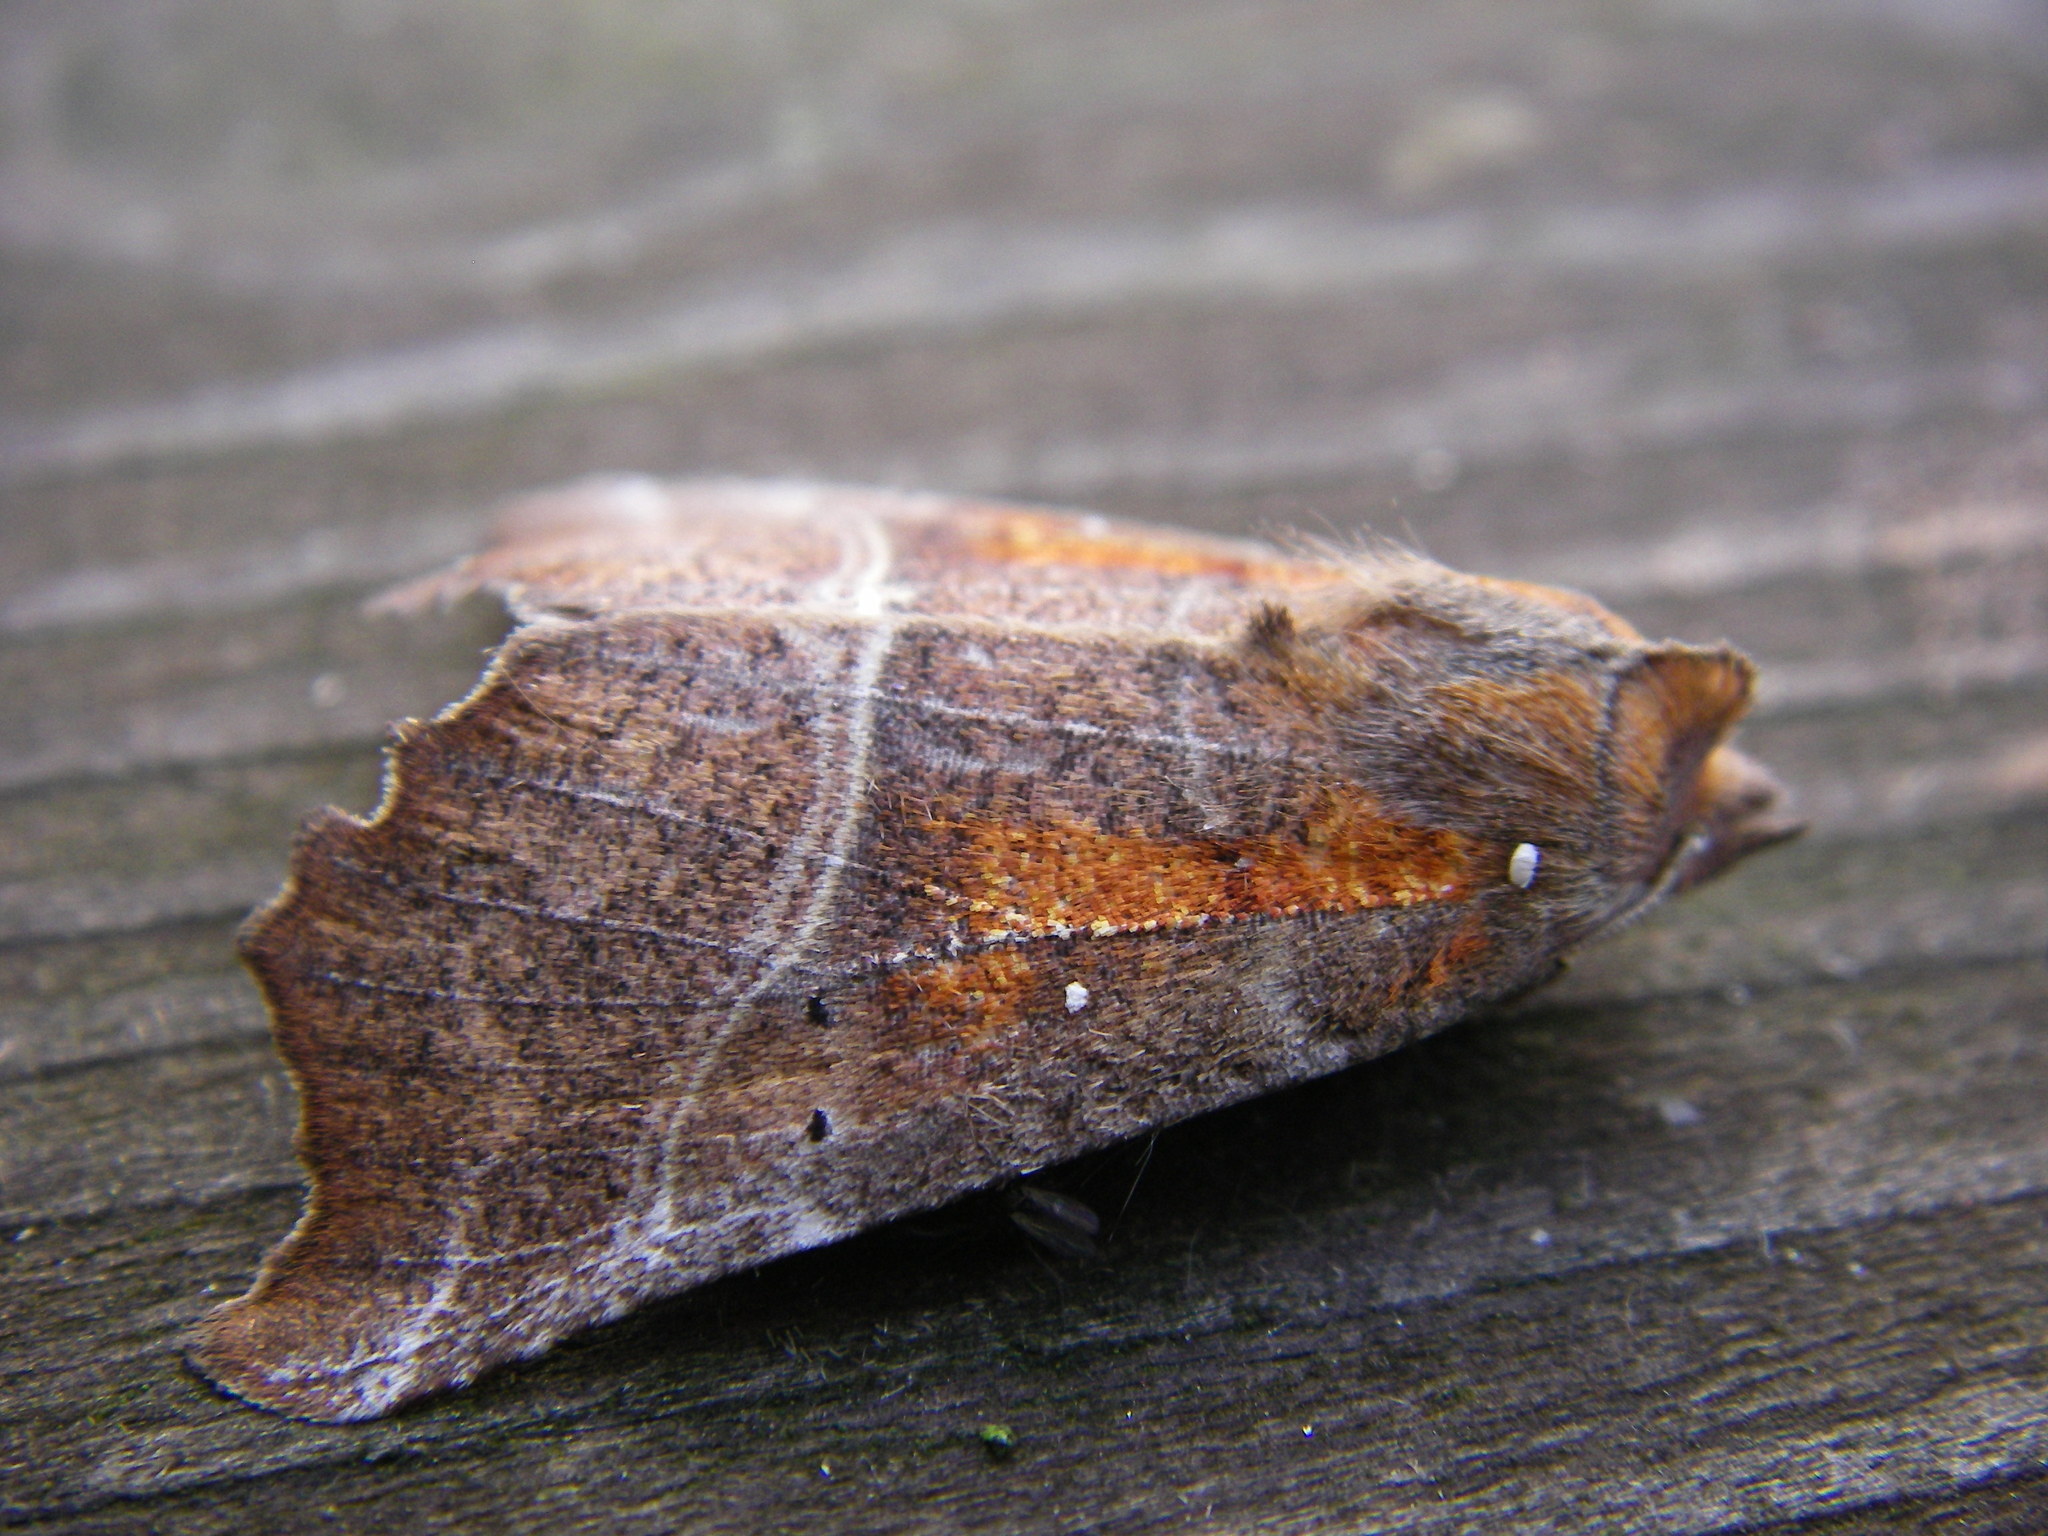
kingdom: Animalia
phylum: Arthropoda
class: Insecta
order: Lepidoptera
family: Erebidae
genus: Scoliopteryx
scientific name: Scoliopteryx libatrix
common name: Herald
